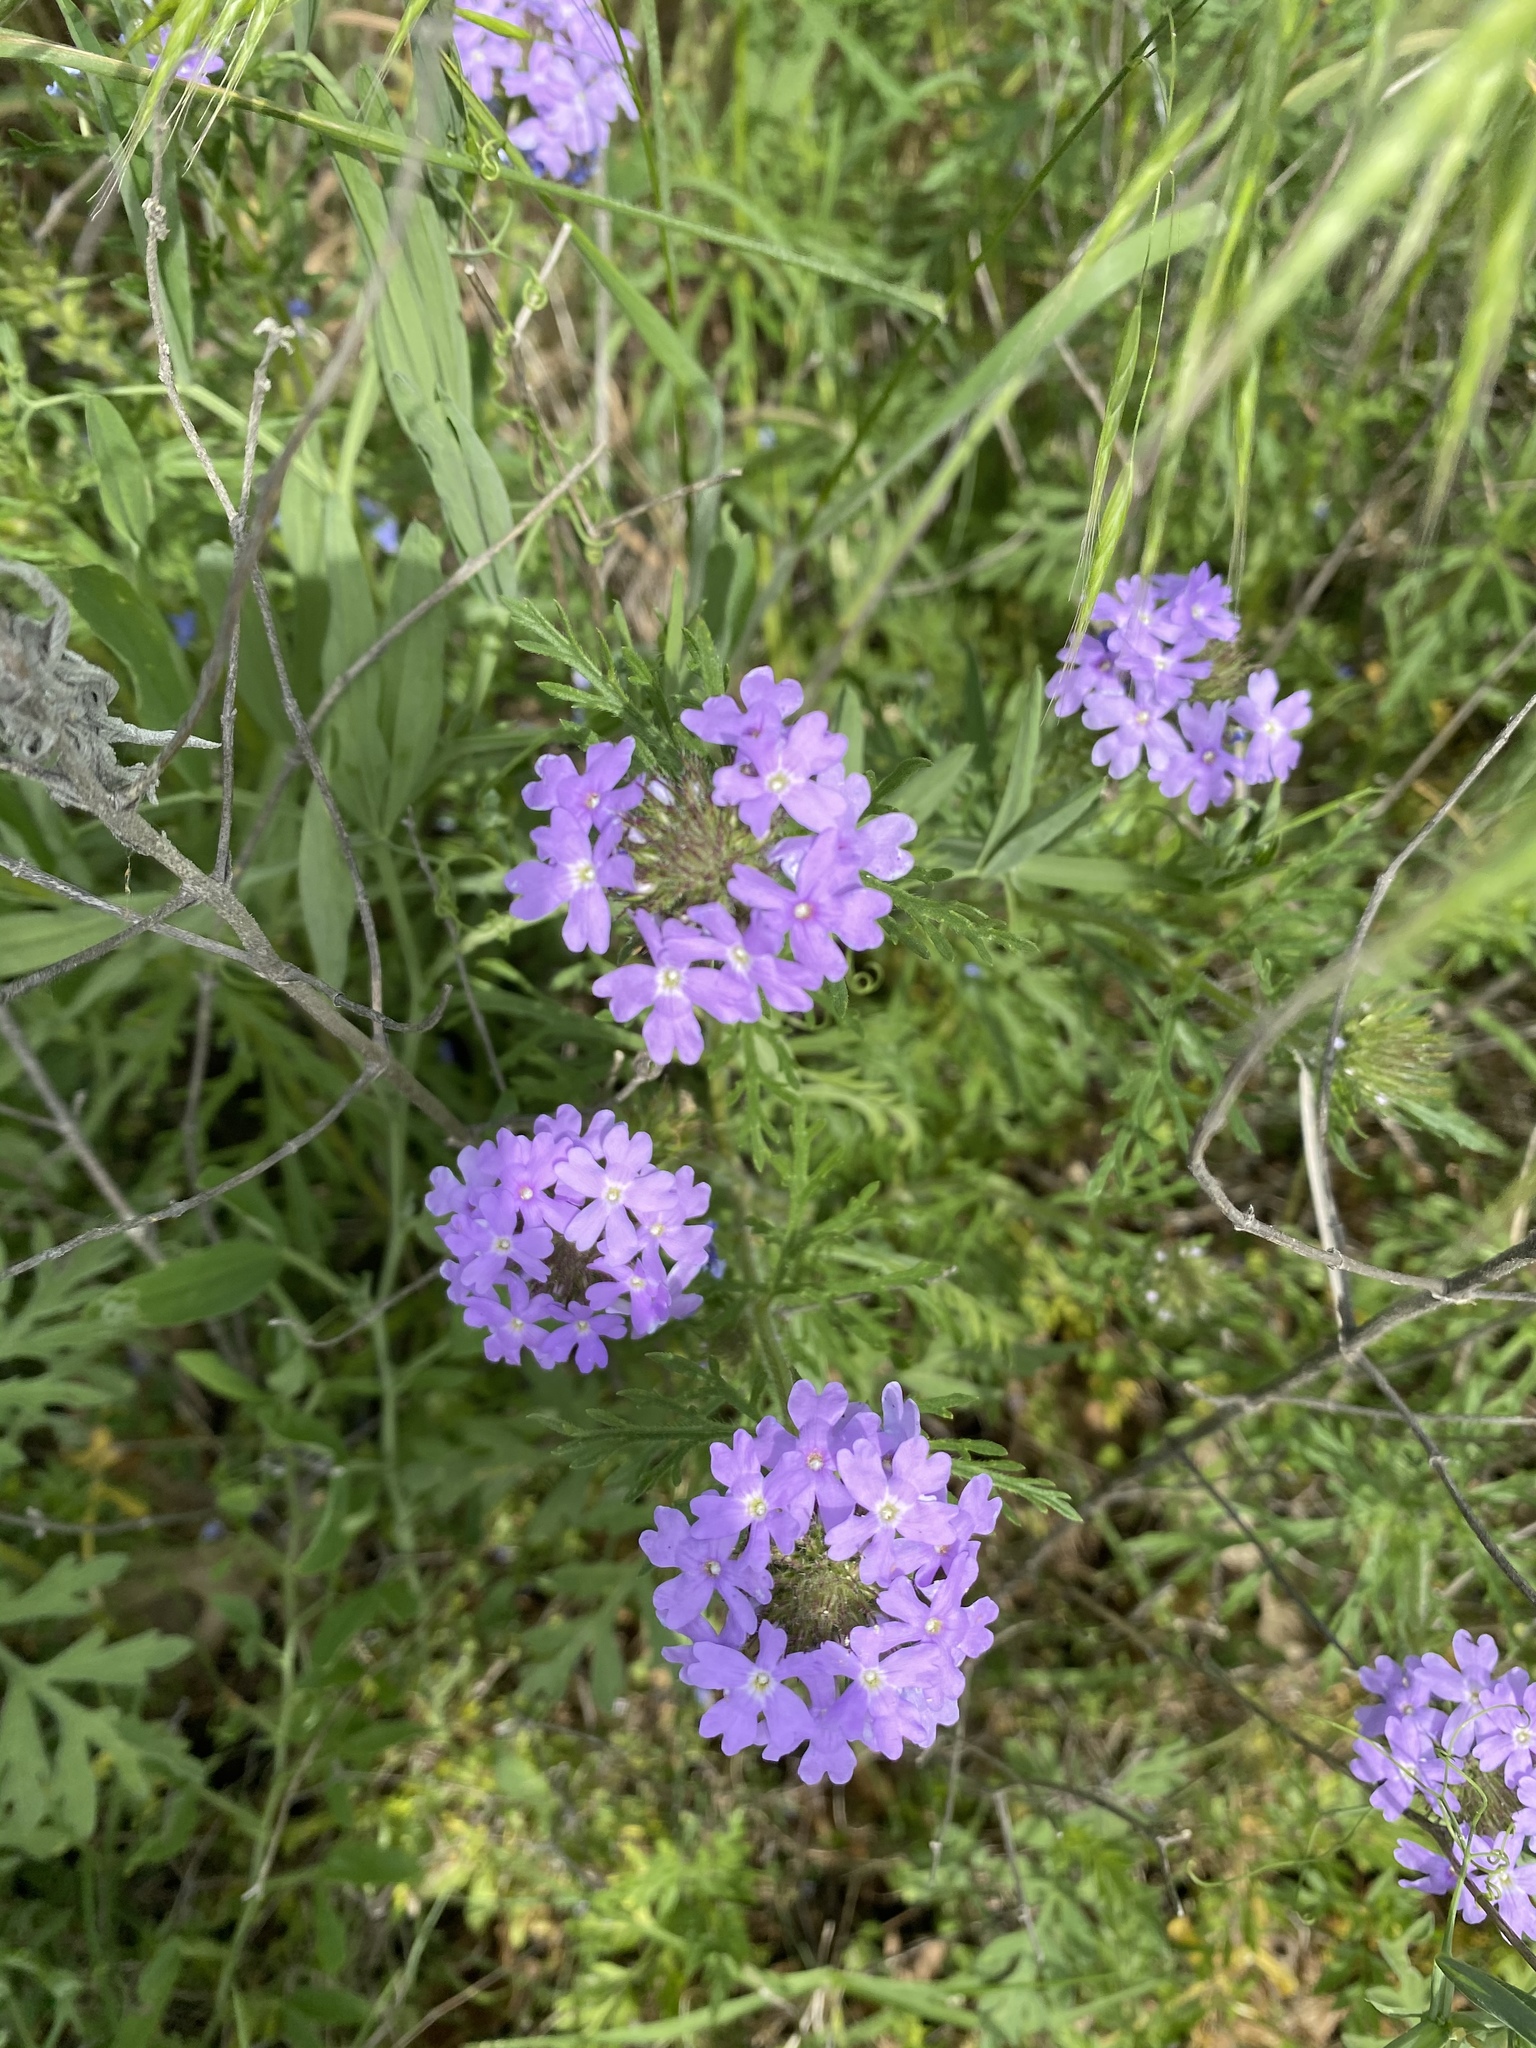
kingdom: Plantae
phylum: Tracheophyta
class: Magnoliopsida
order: Lamiales
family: Verbenaceae
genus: Verbena
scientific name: Verbena bipinnatifida
